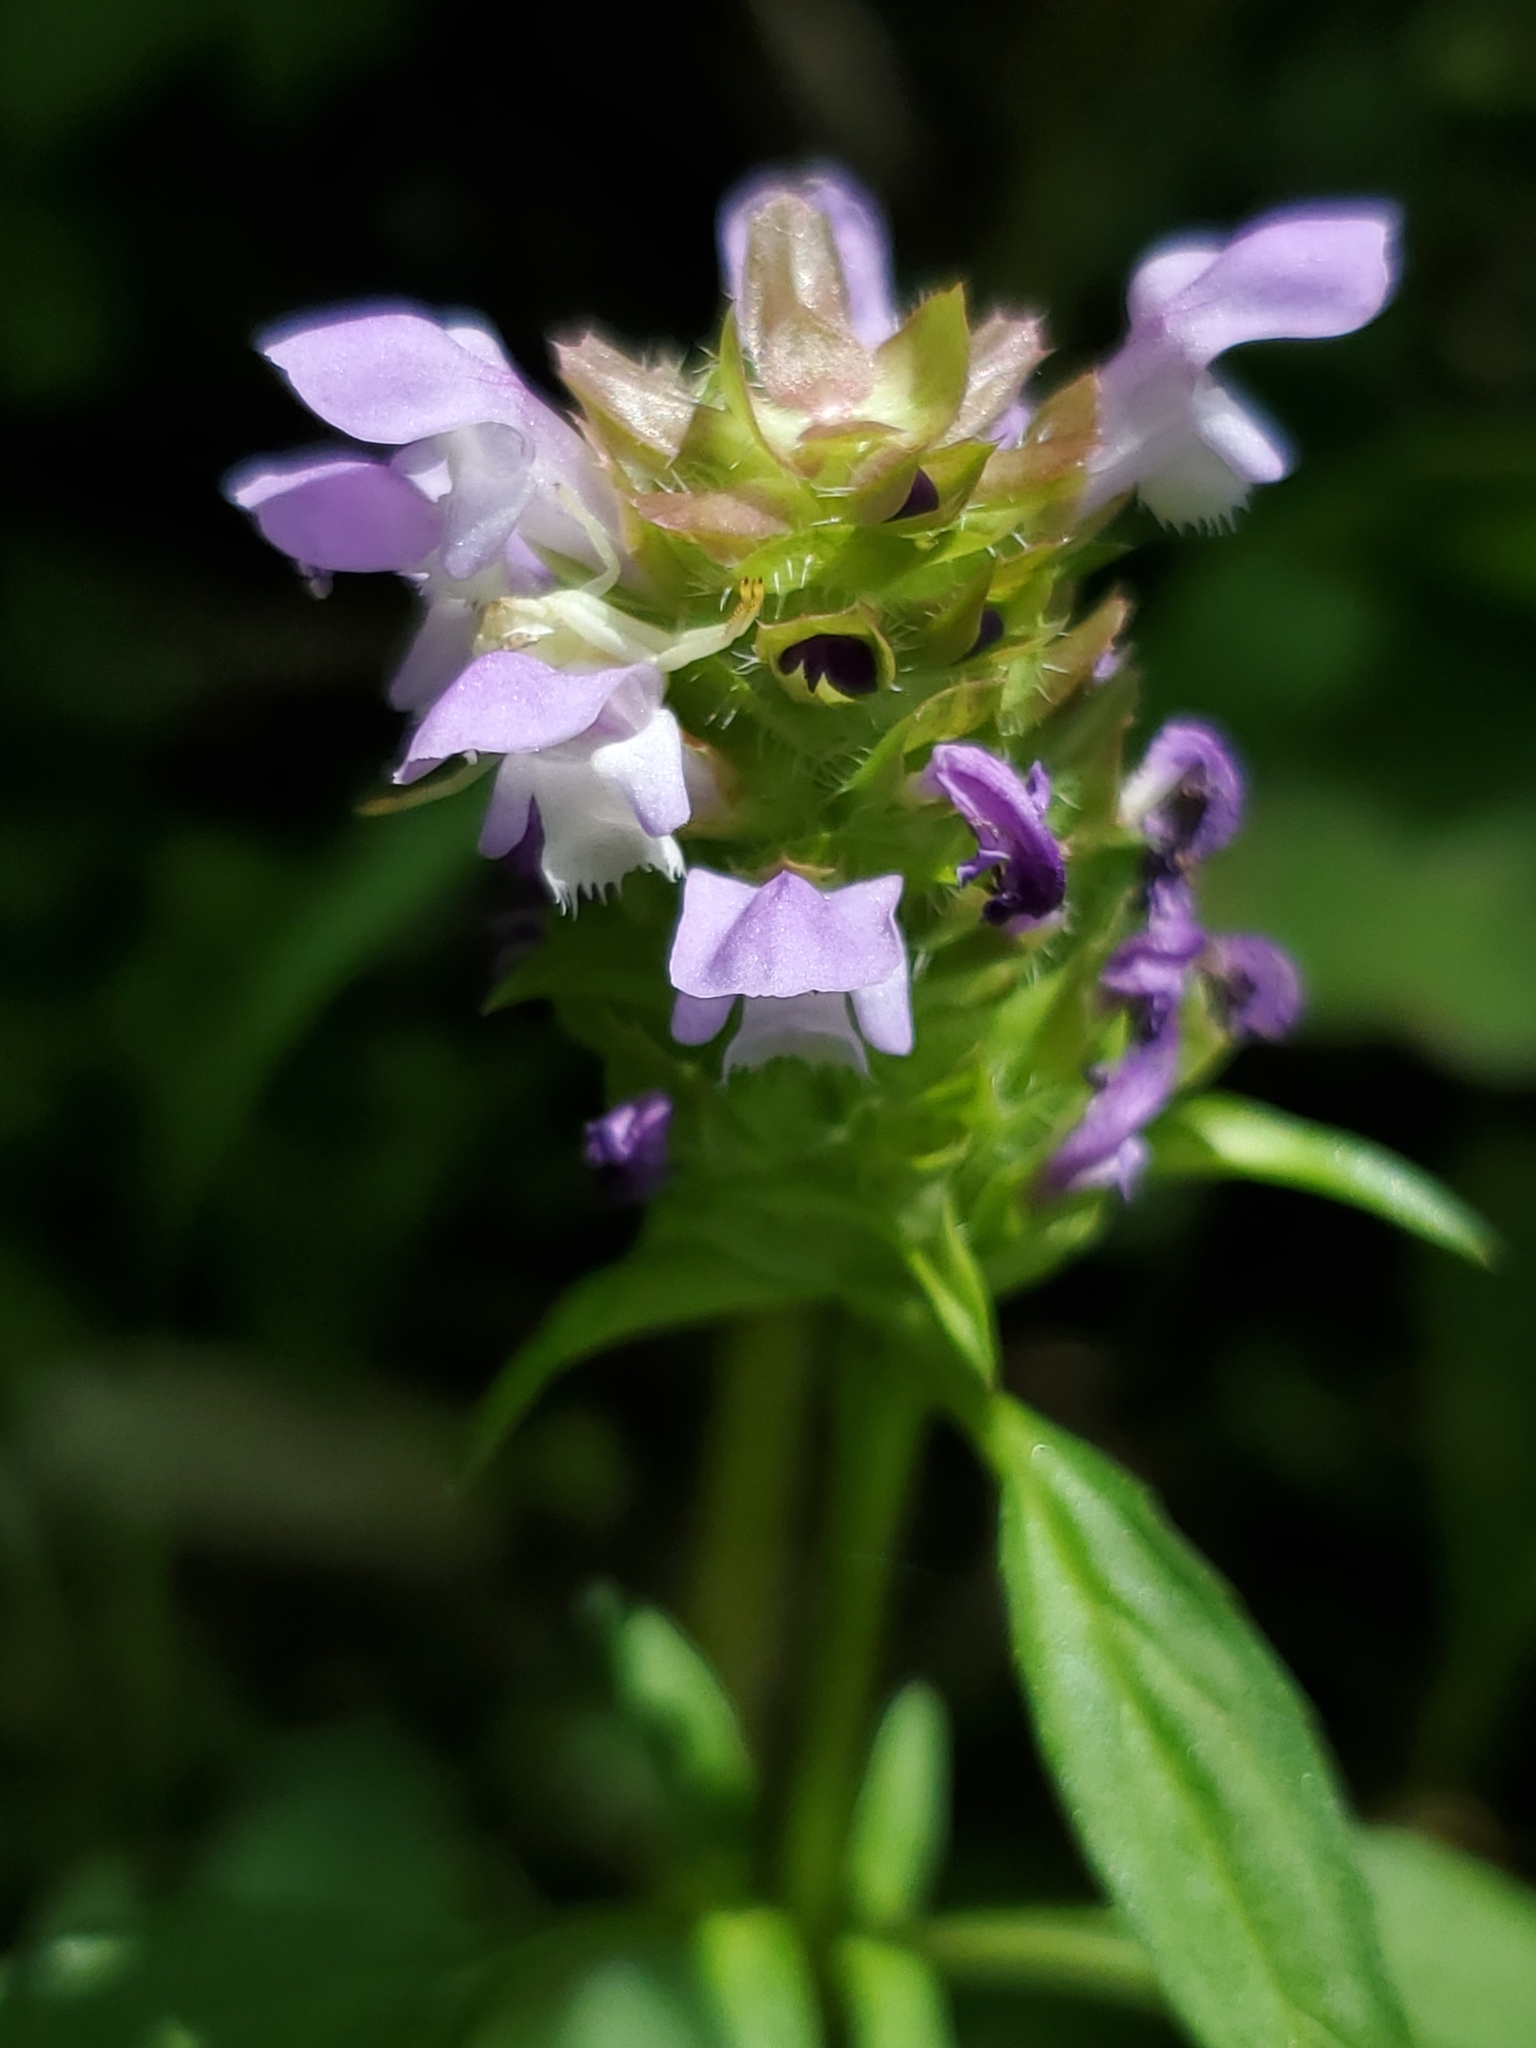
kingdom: Plantae
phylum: Tracheophyta
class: Magnoliopsida
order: Lamiales
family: Lamiaceae
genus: Prunella
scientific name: Prunella vulgaris
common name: Heal-all
